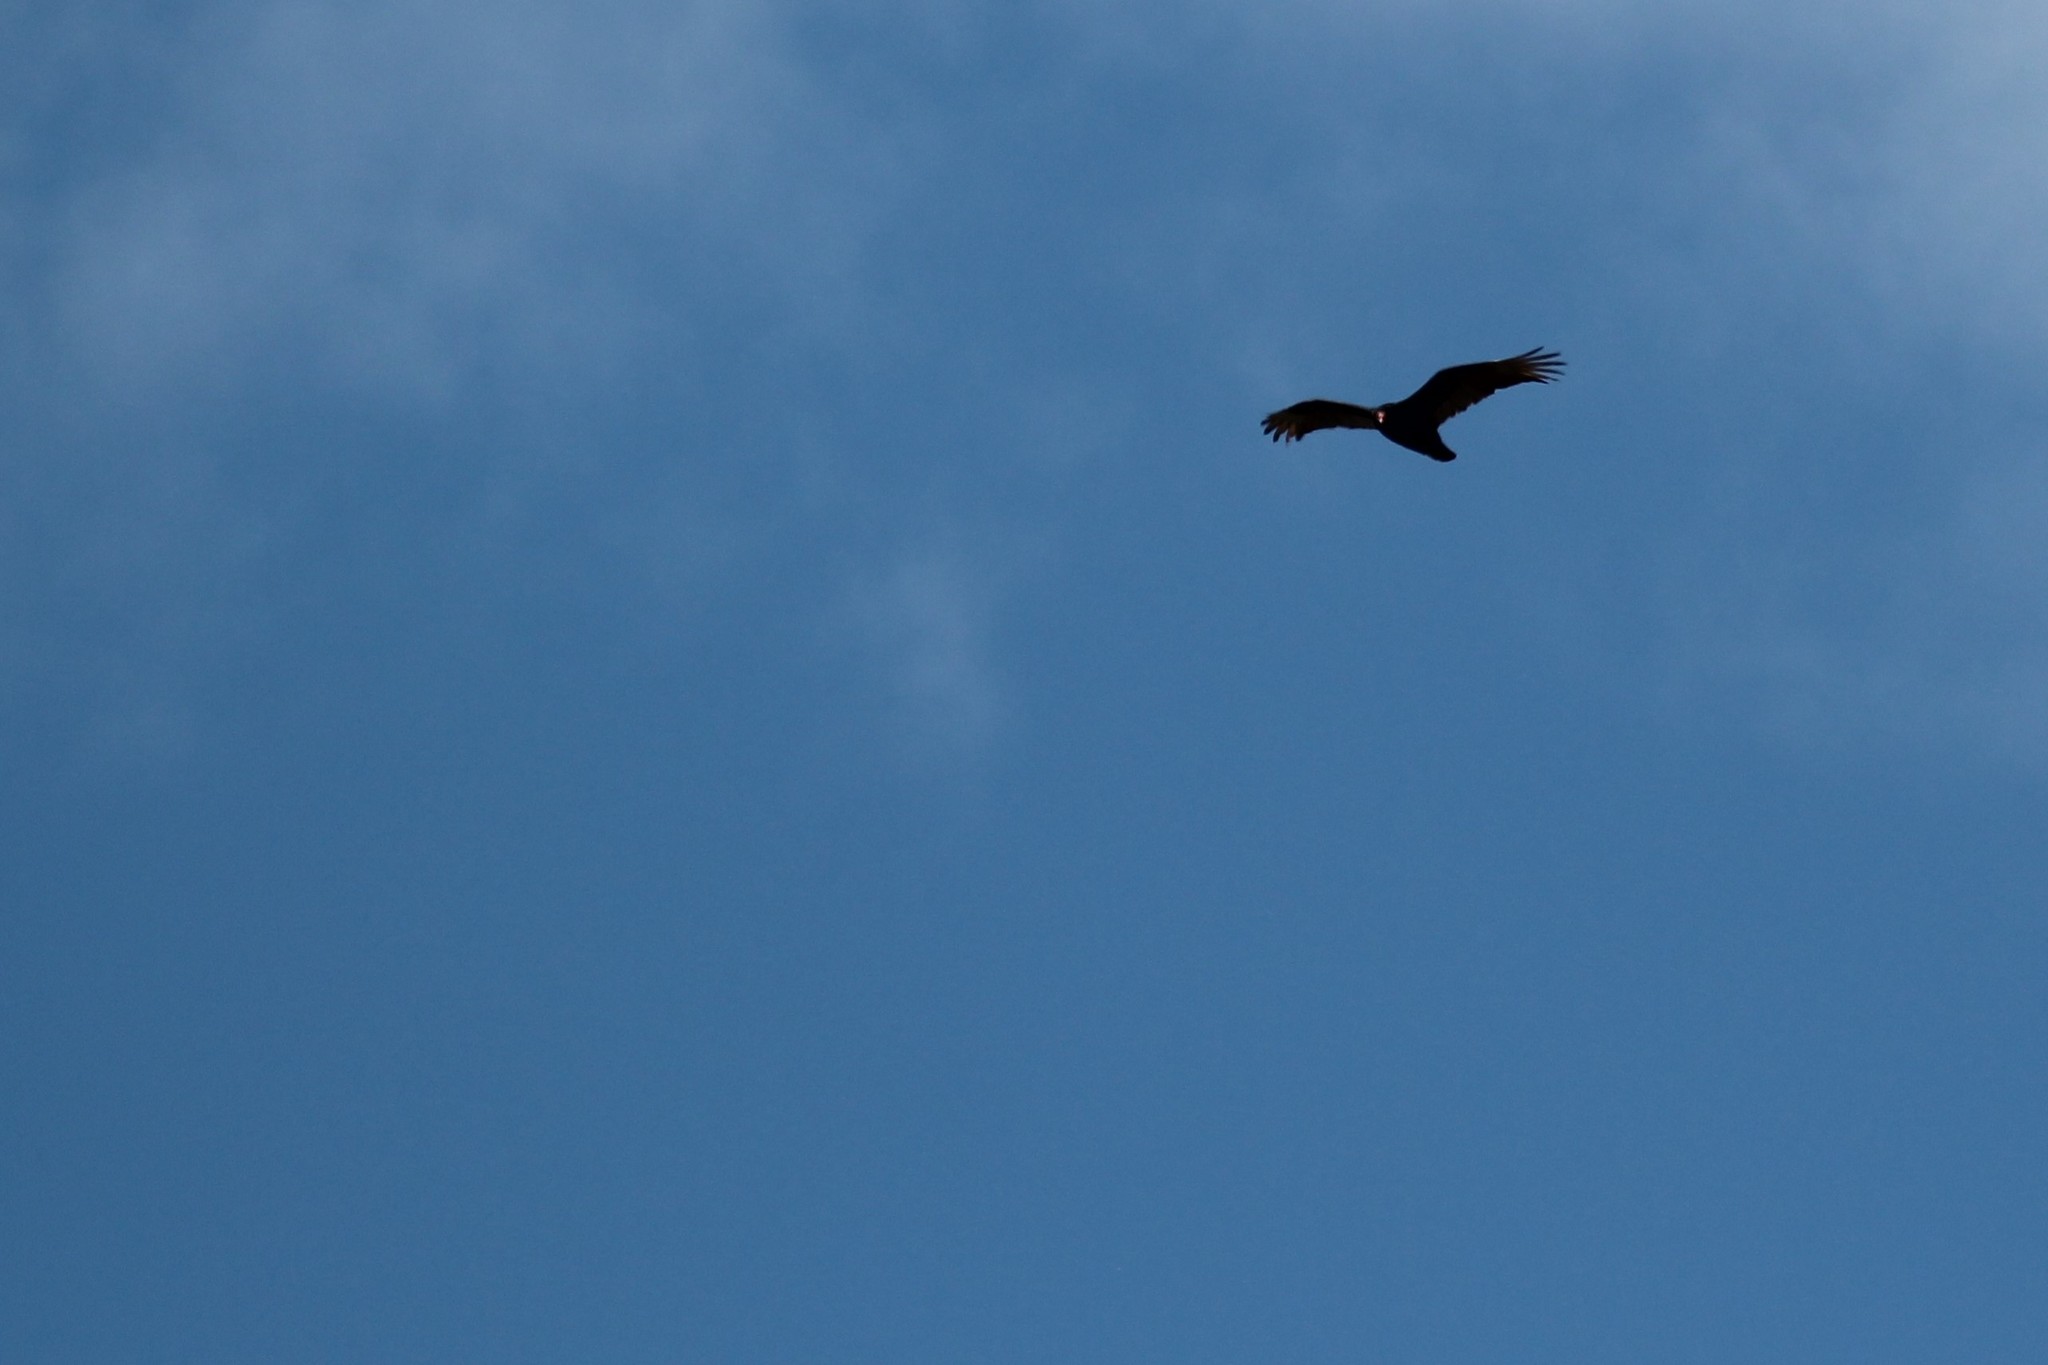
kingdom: Animalia
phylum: Chordata
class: Aves
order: Accipitriformes
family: Cathartidae
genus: Cathartes
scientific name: Cathartes aura
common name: Turkey vulture
